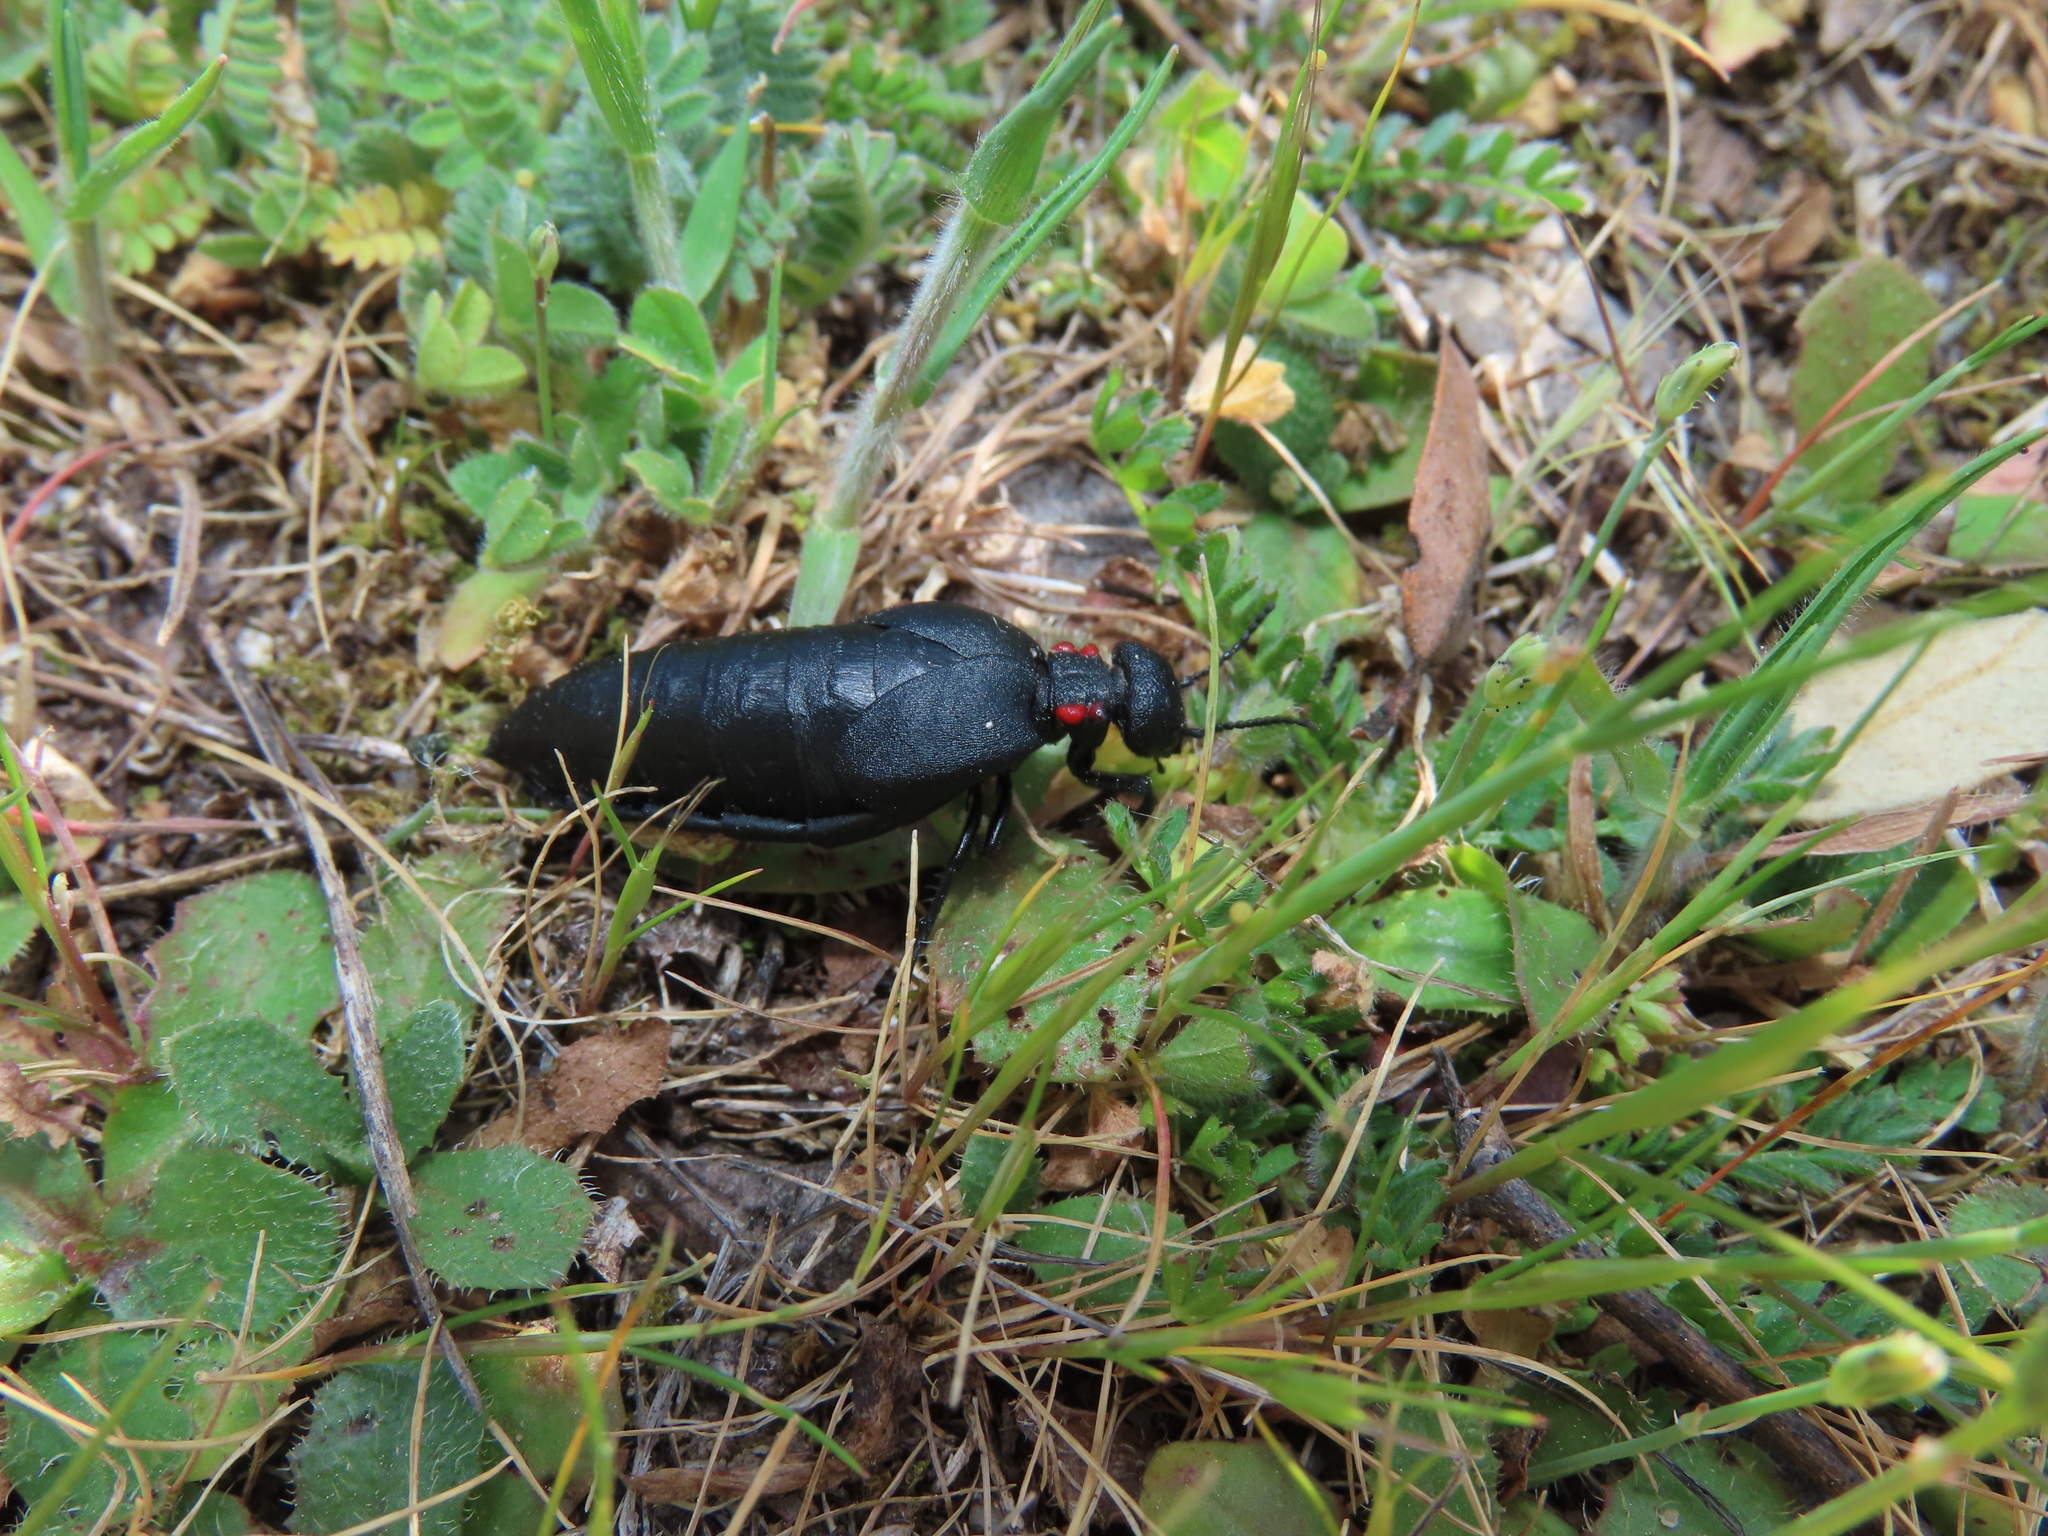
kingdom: Animalia
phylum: Arthropoda
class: Insecta
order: Coleoptera
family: Meloidae
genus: Physomeloe
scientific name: Physomeloe corallifer
